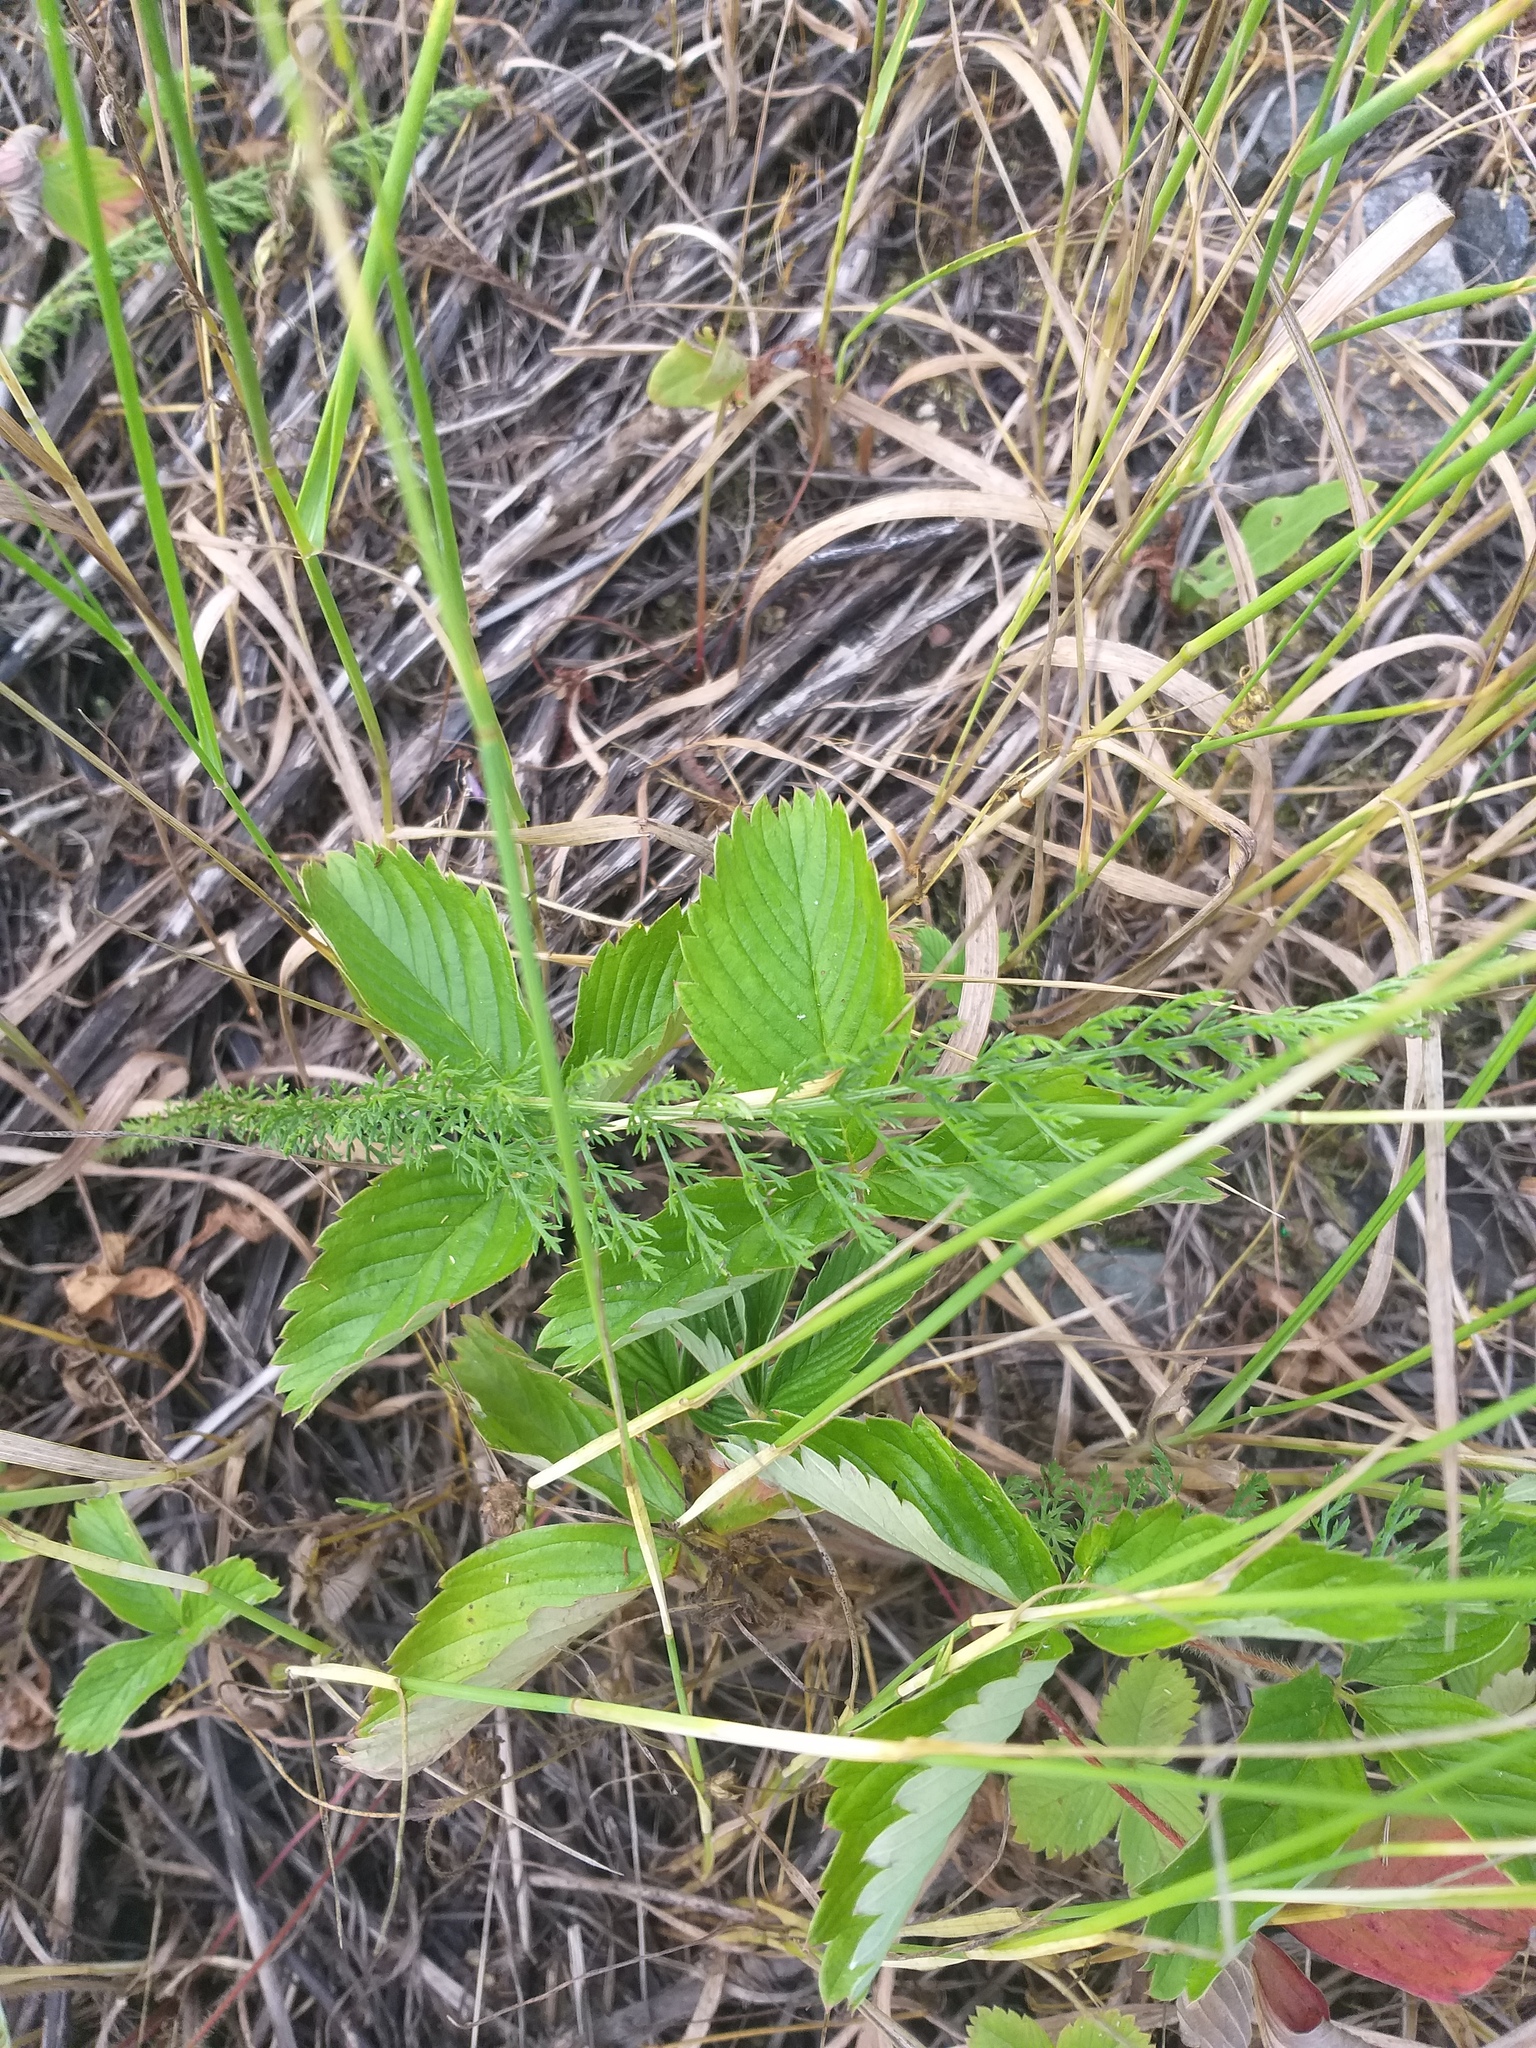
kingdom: Plantae
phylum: Tracheophyta
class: Magnoliopsida
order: Rosales
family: Rosaceae
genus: Fragaria
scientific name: Fragaria viridis
